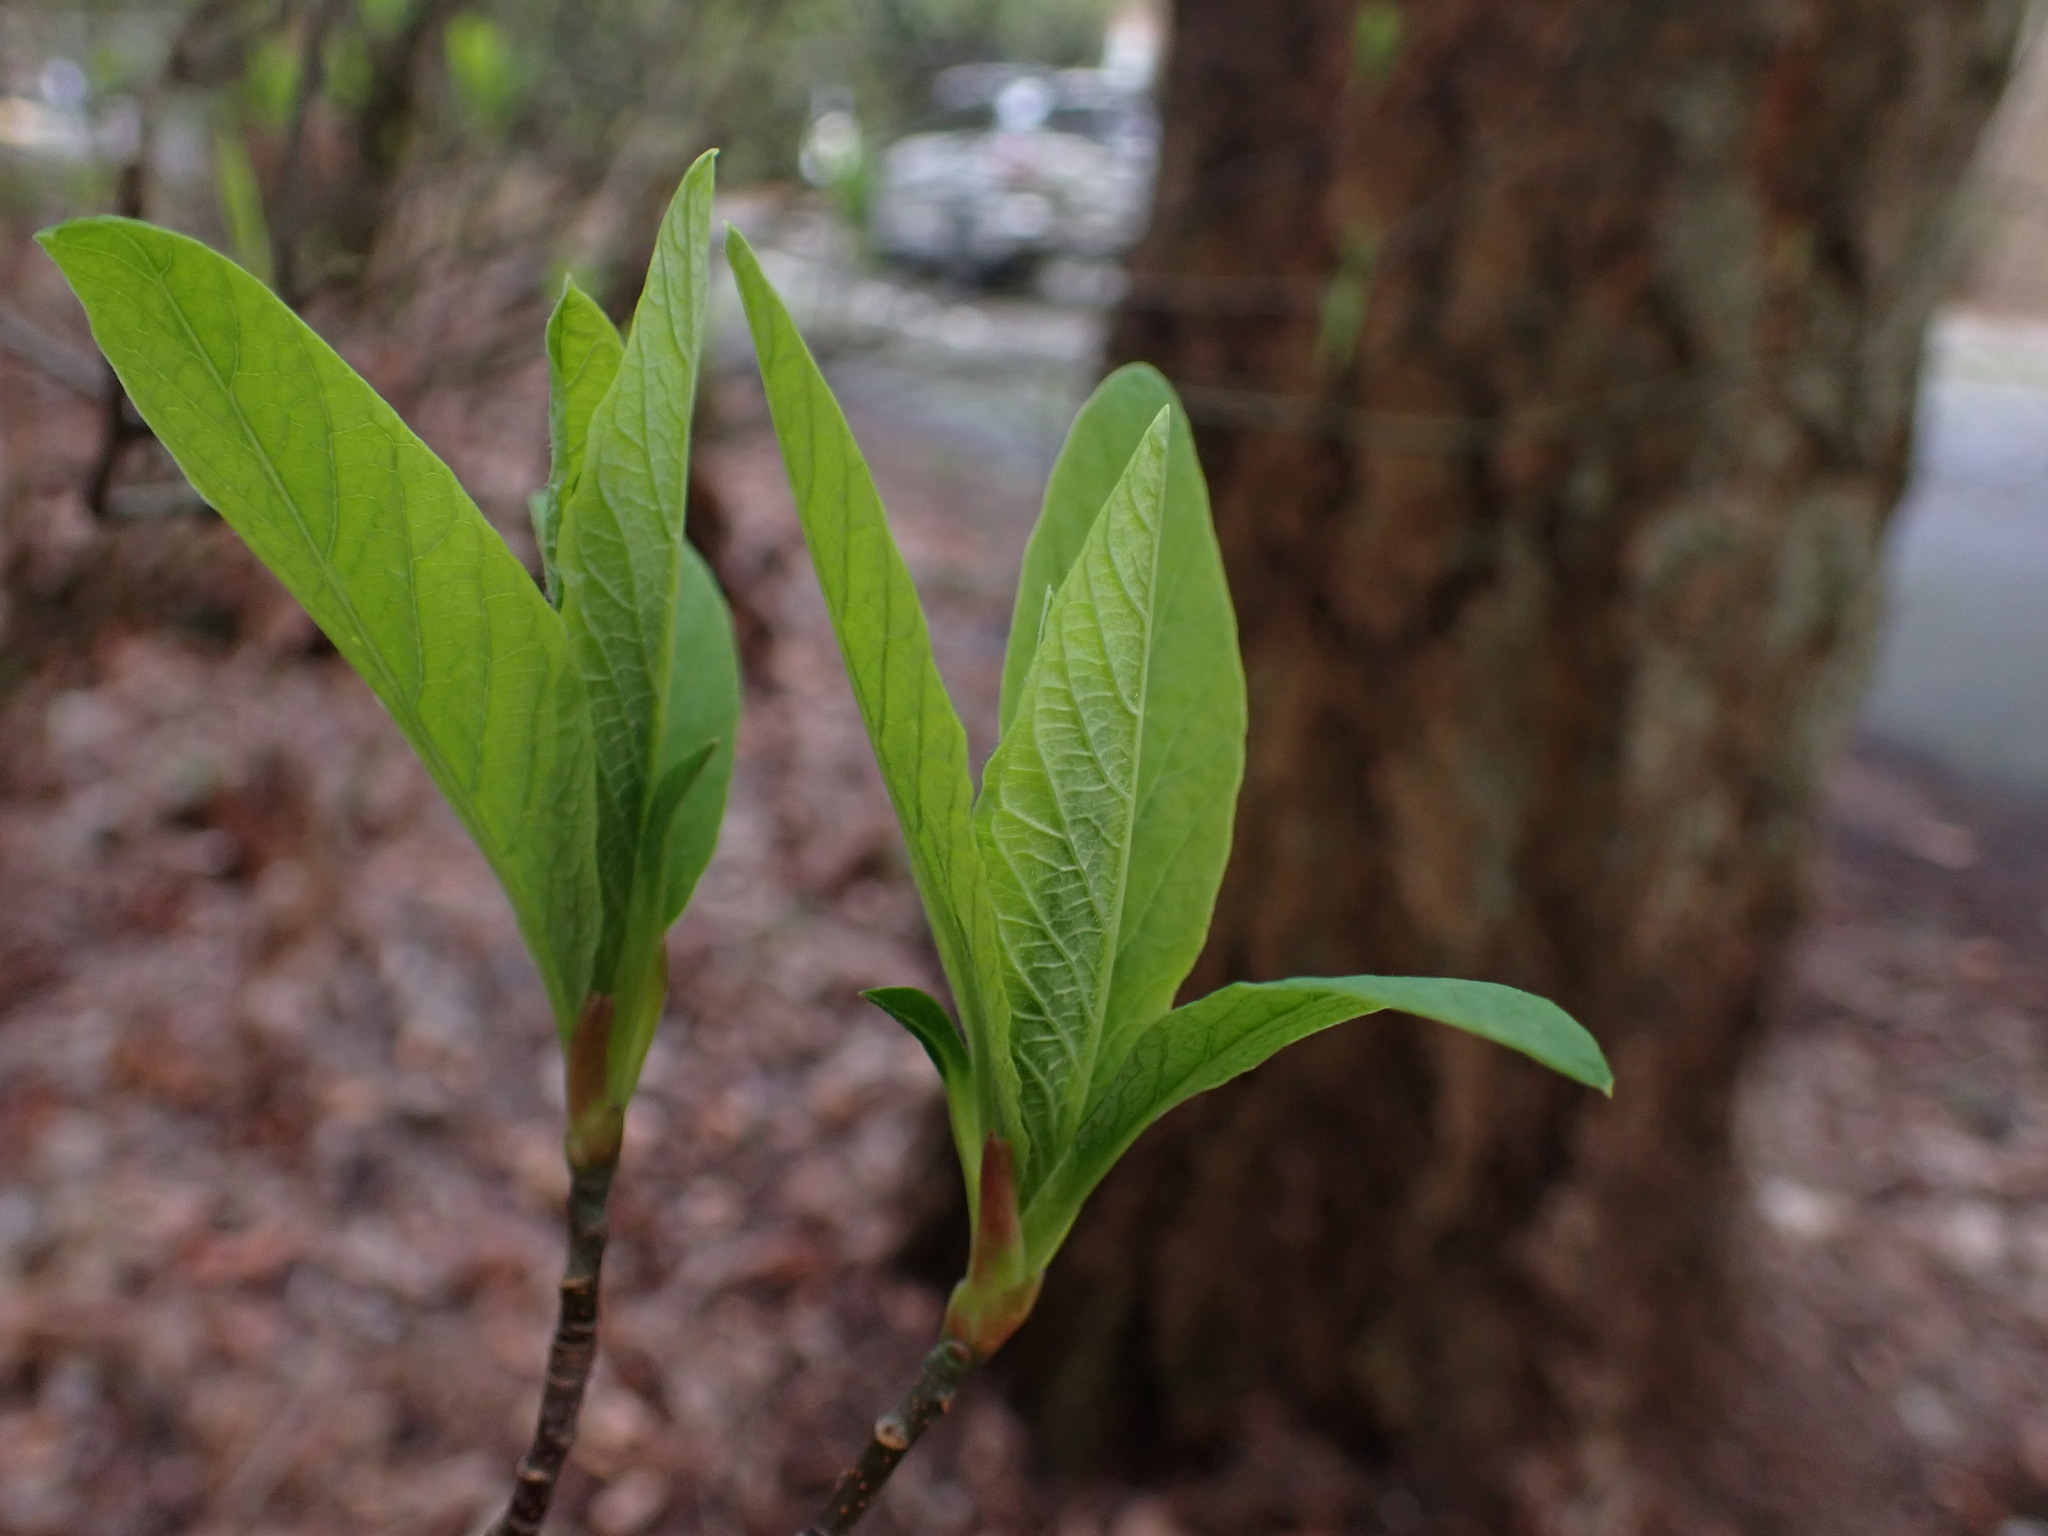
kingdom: Plantae
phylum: Tracheophyta
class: Magnoliopsida
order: Rosales
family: Rosaceae
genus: Oemleria
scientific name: Oemleria cerasiformis
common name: Osoberry
